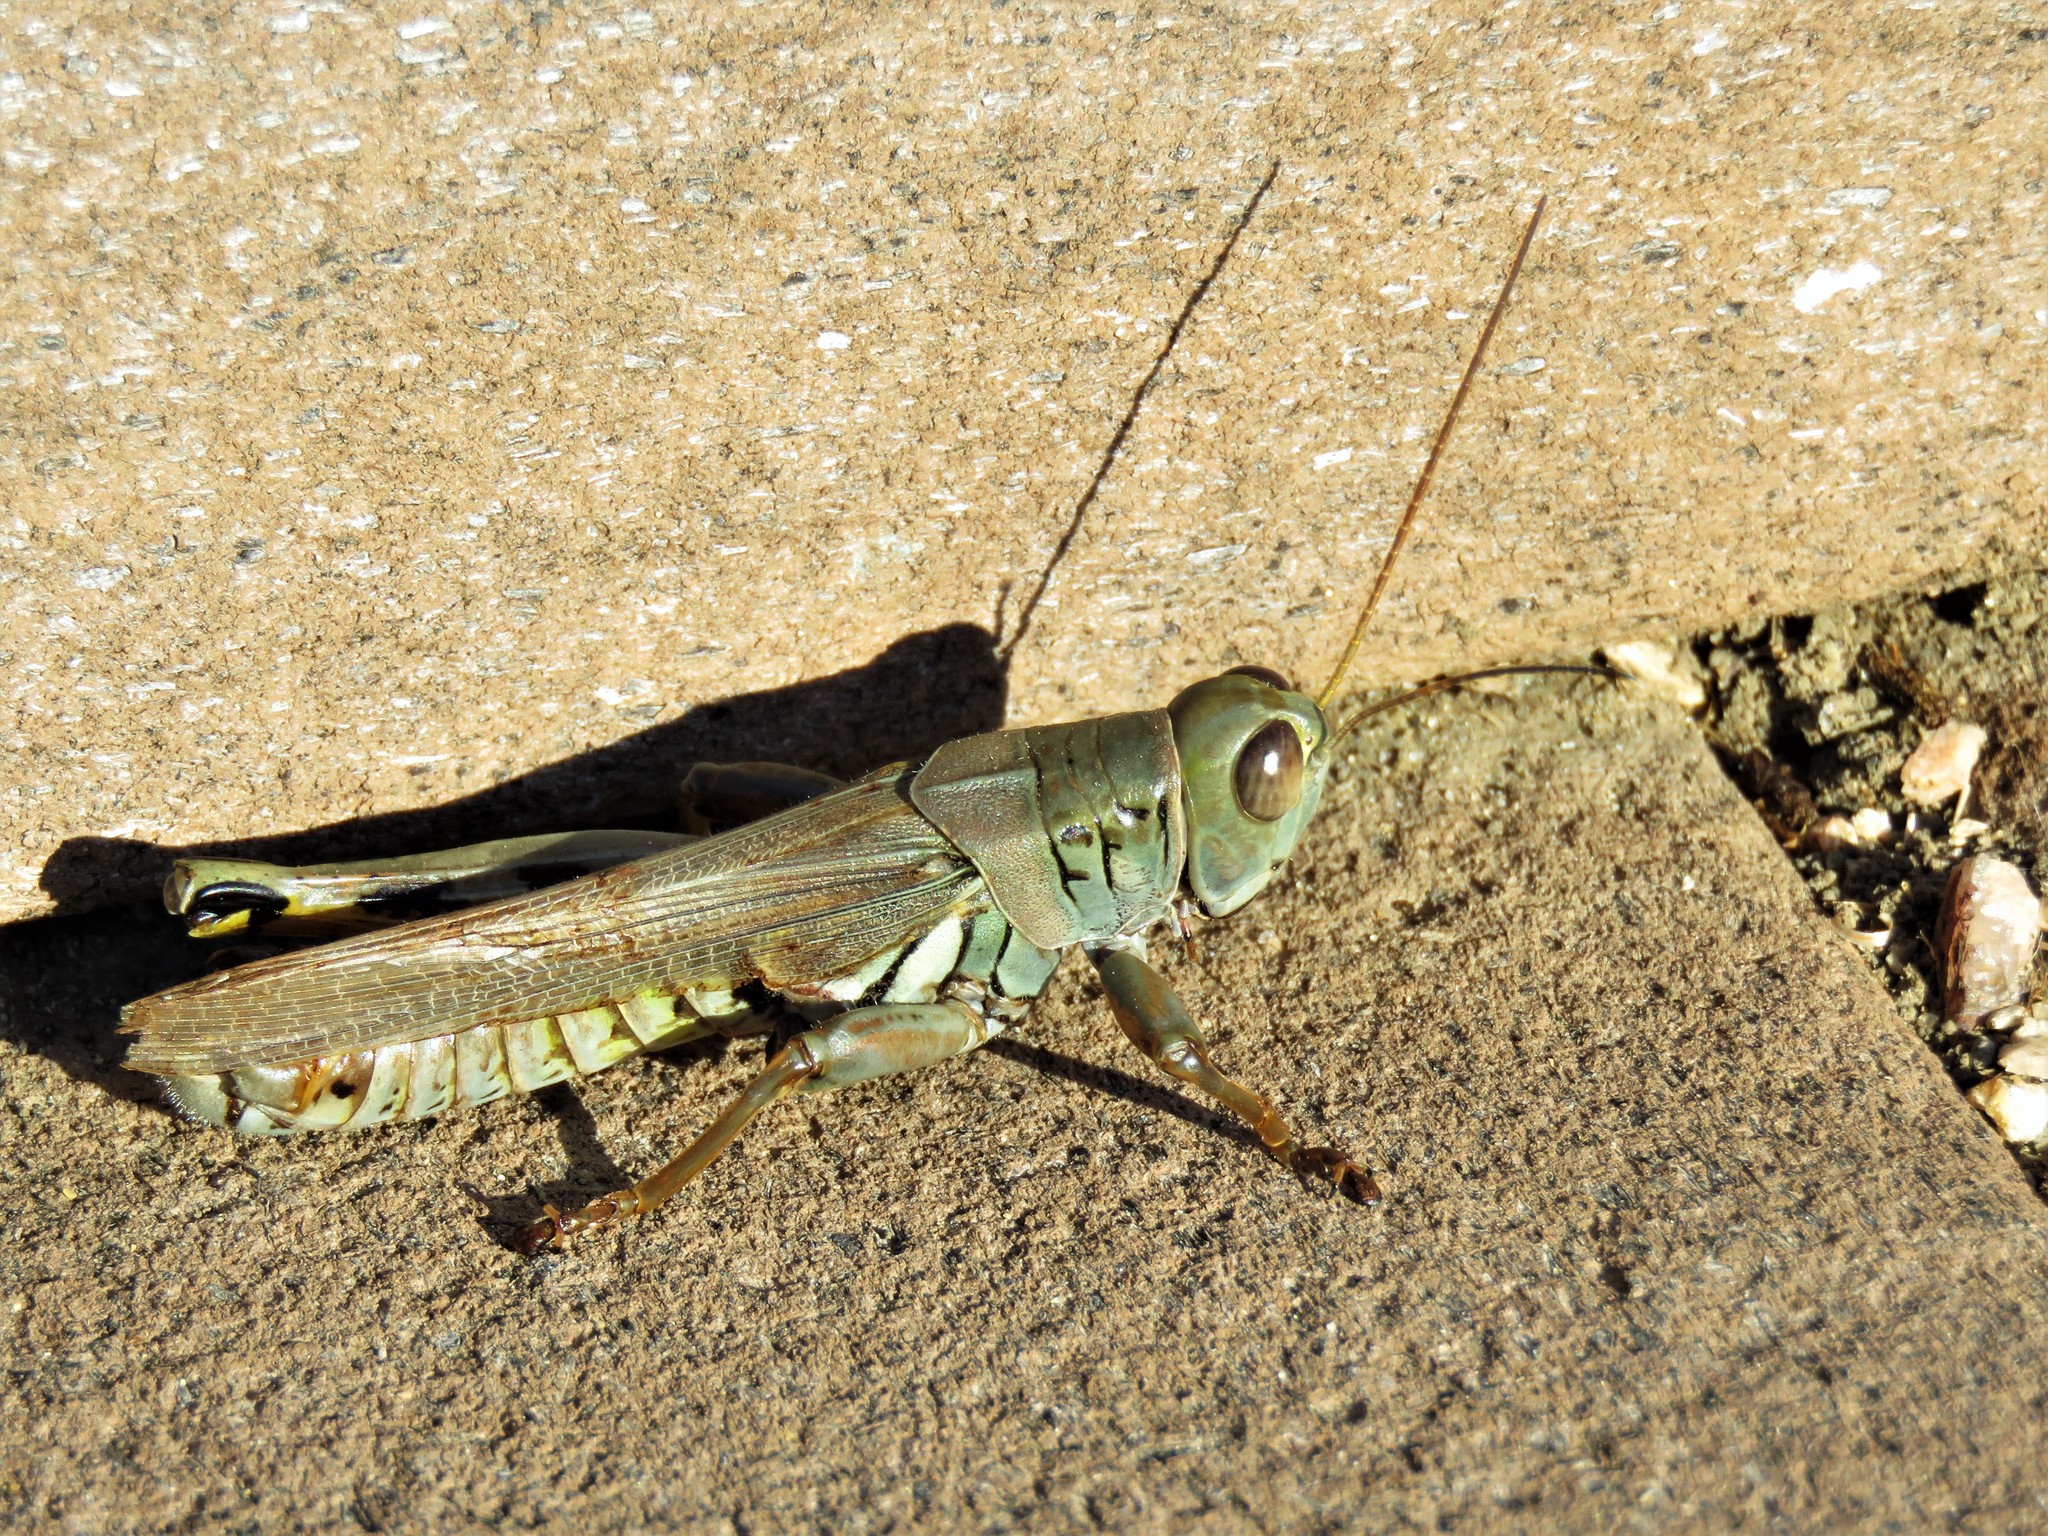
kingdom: Animalia
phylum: Arthropoda
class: Insecta
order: Orthoptera
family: Acrididae
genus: Melanoplus
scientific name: Melanoplus differentialis
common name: Differential grasshopper
